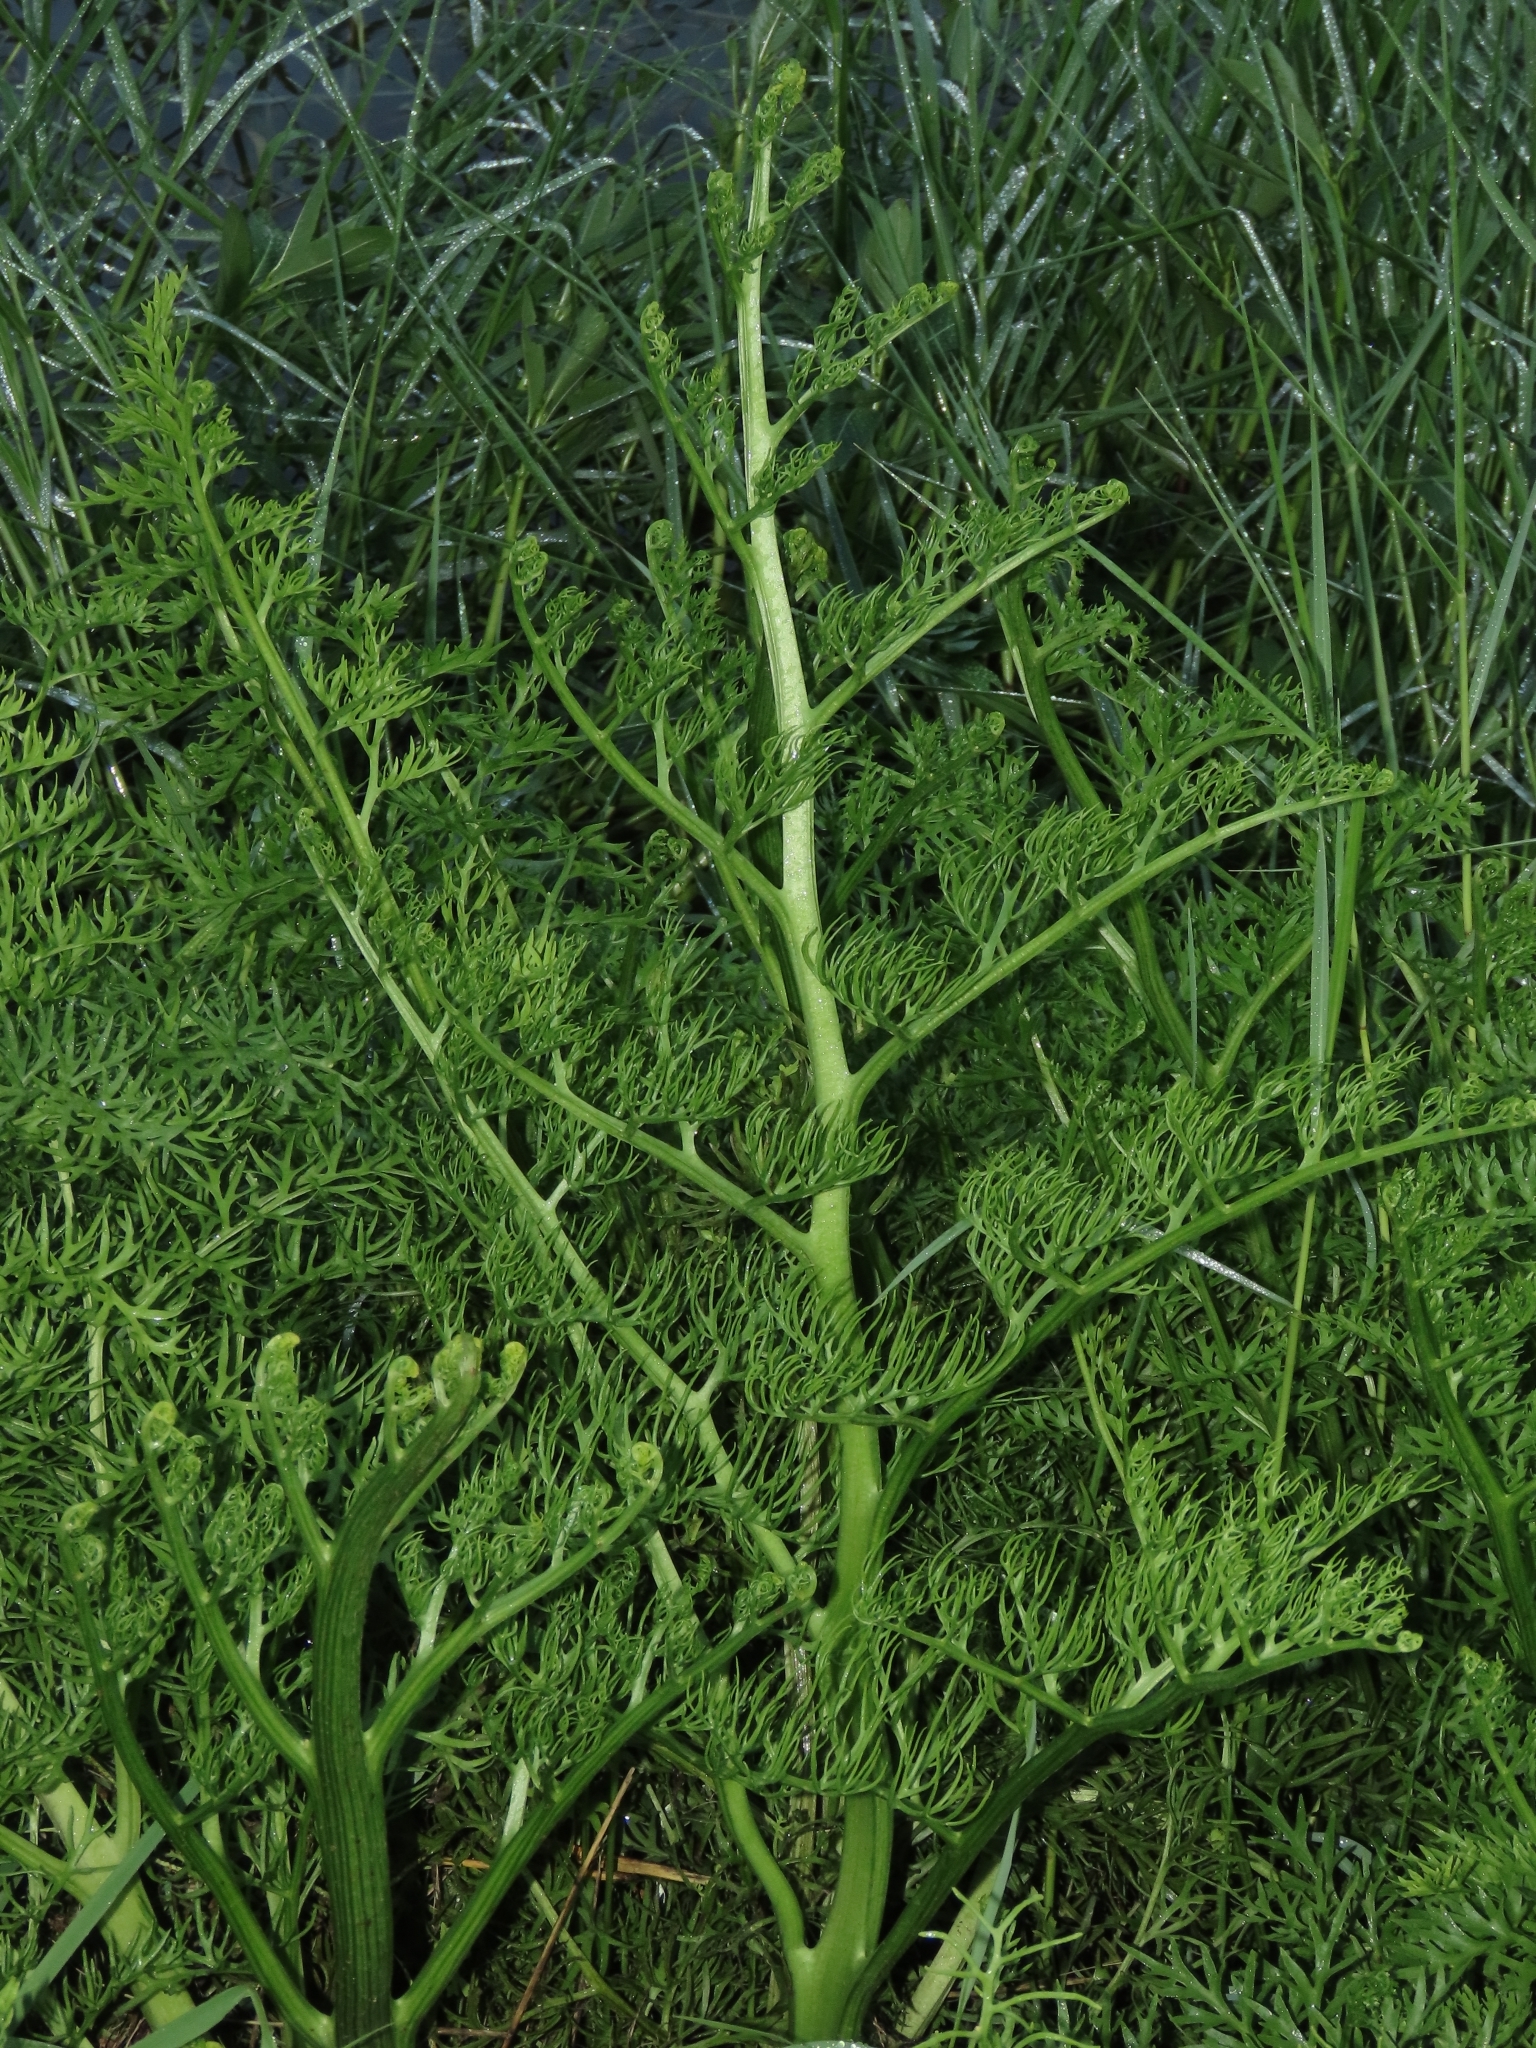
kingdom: Plantae
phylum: Tracheophyta
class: Polypodiopsida
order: Polypodiales
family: Pteridaceae
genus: Ceratopteris
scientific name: Ceratopteris thalictroides
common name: Water fern
